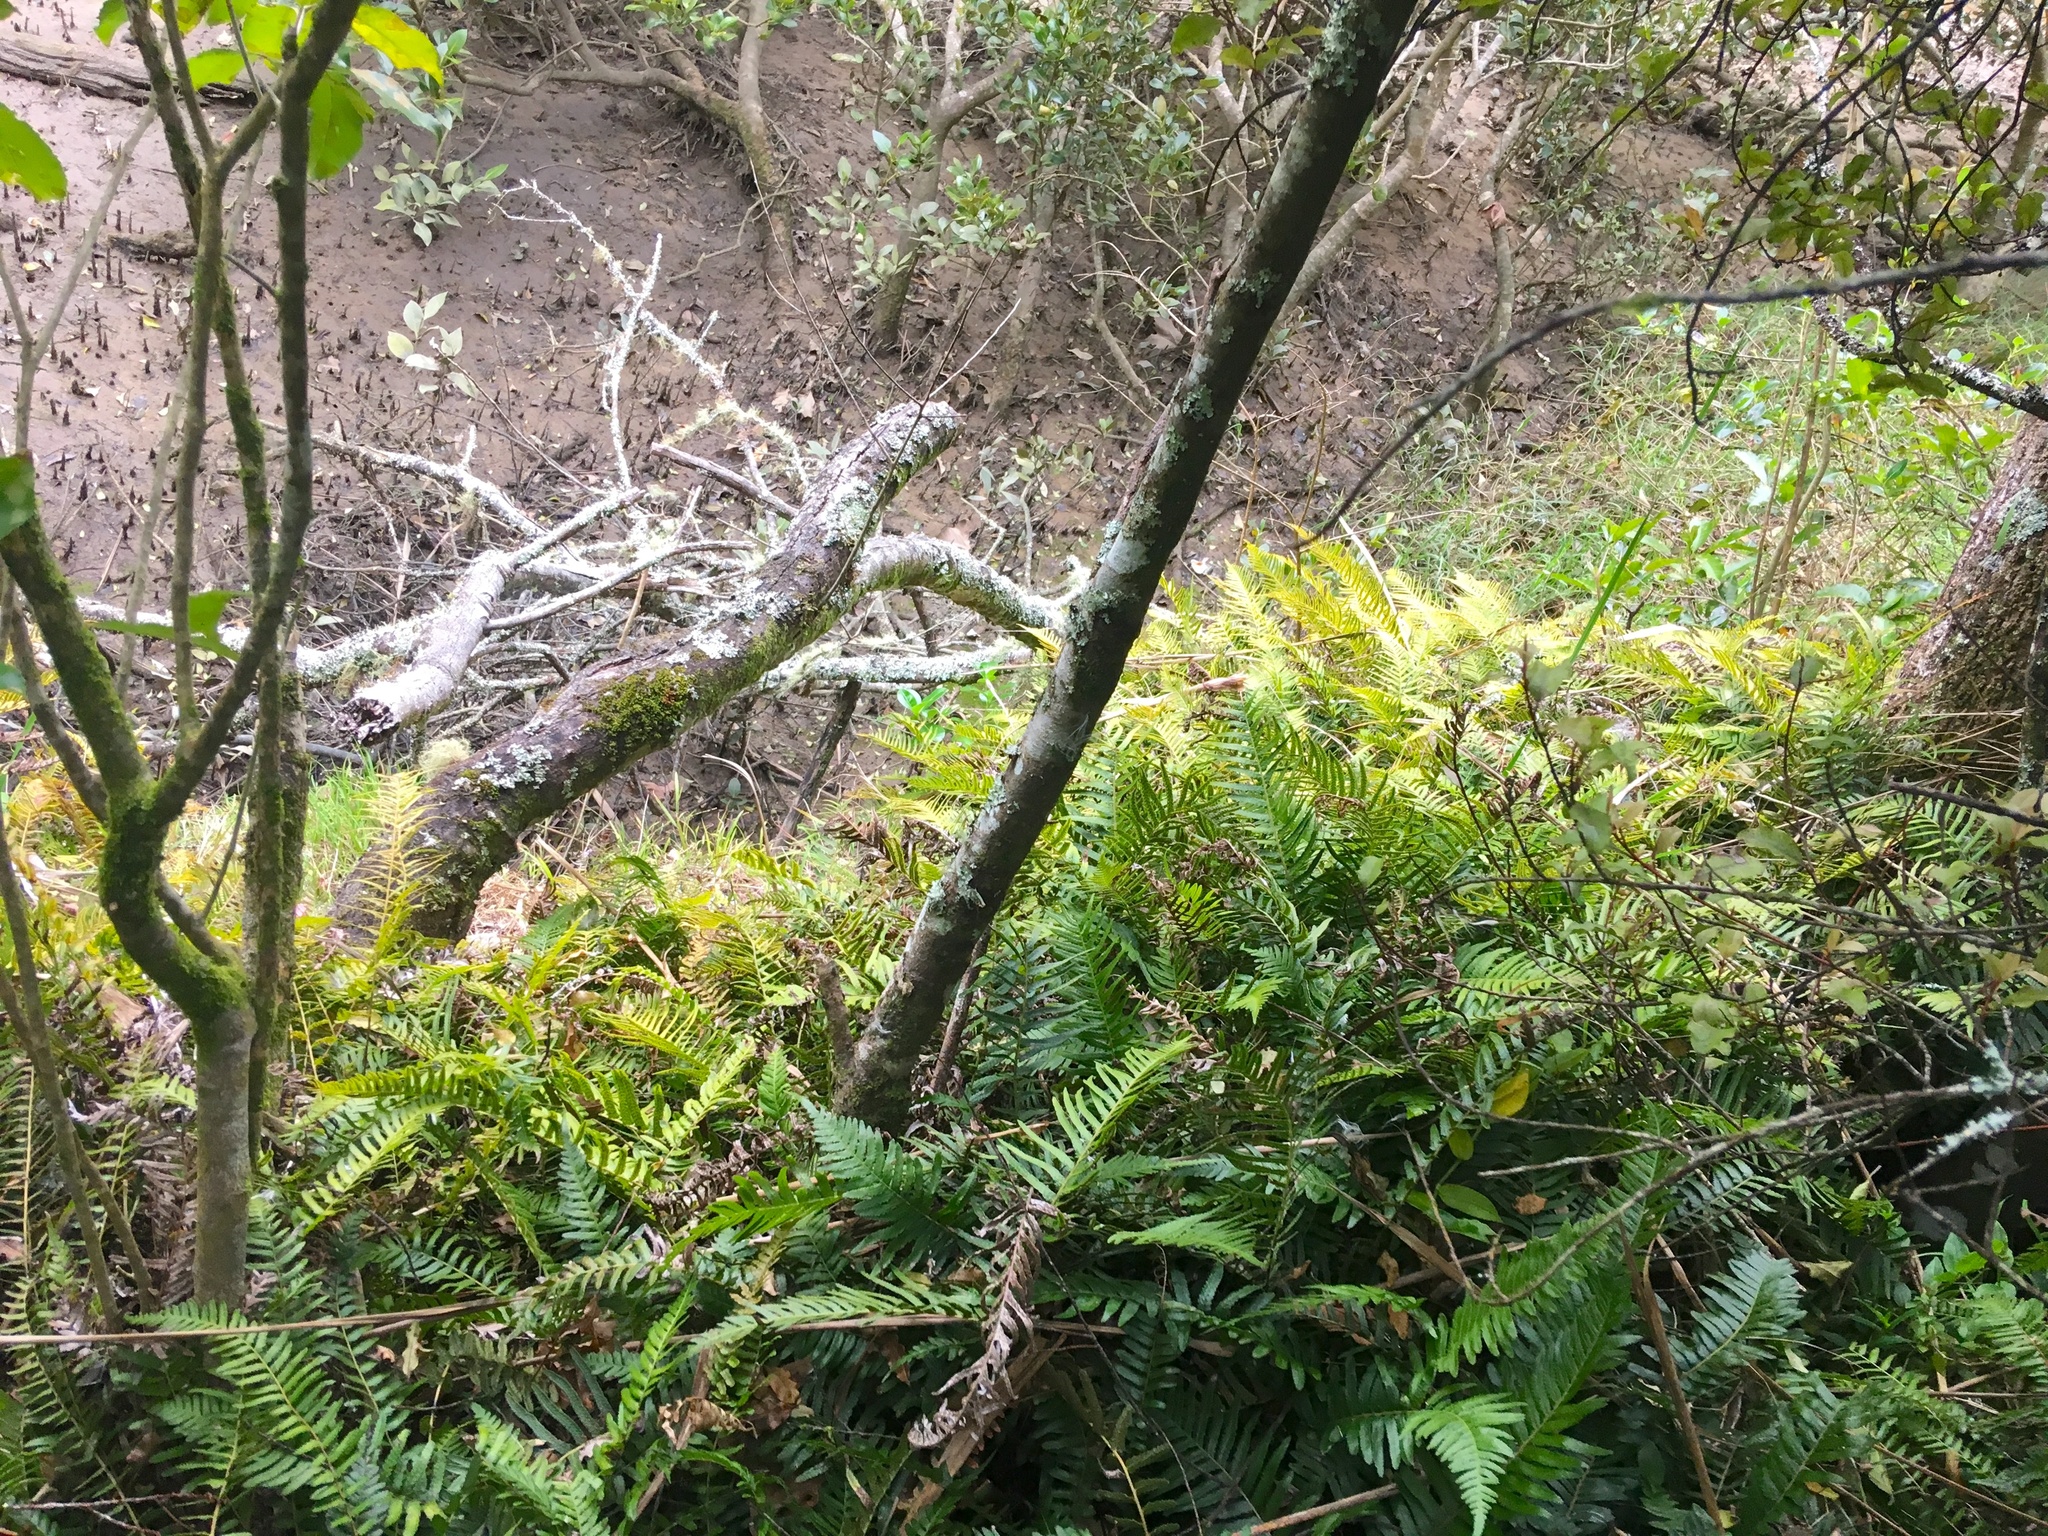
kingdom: Plantae
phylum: Tracheophyta
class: Polypodiopsida
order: Polypodiales
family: Blechnaceae
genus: Doodia
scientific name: Doodia australis
